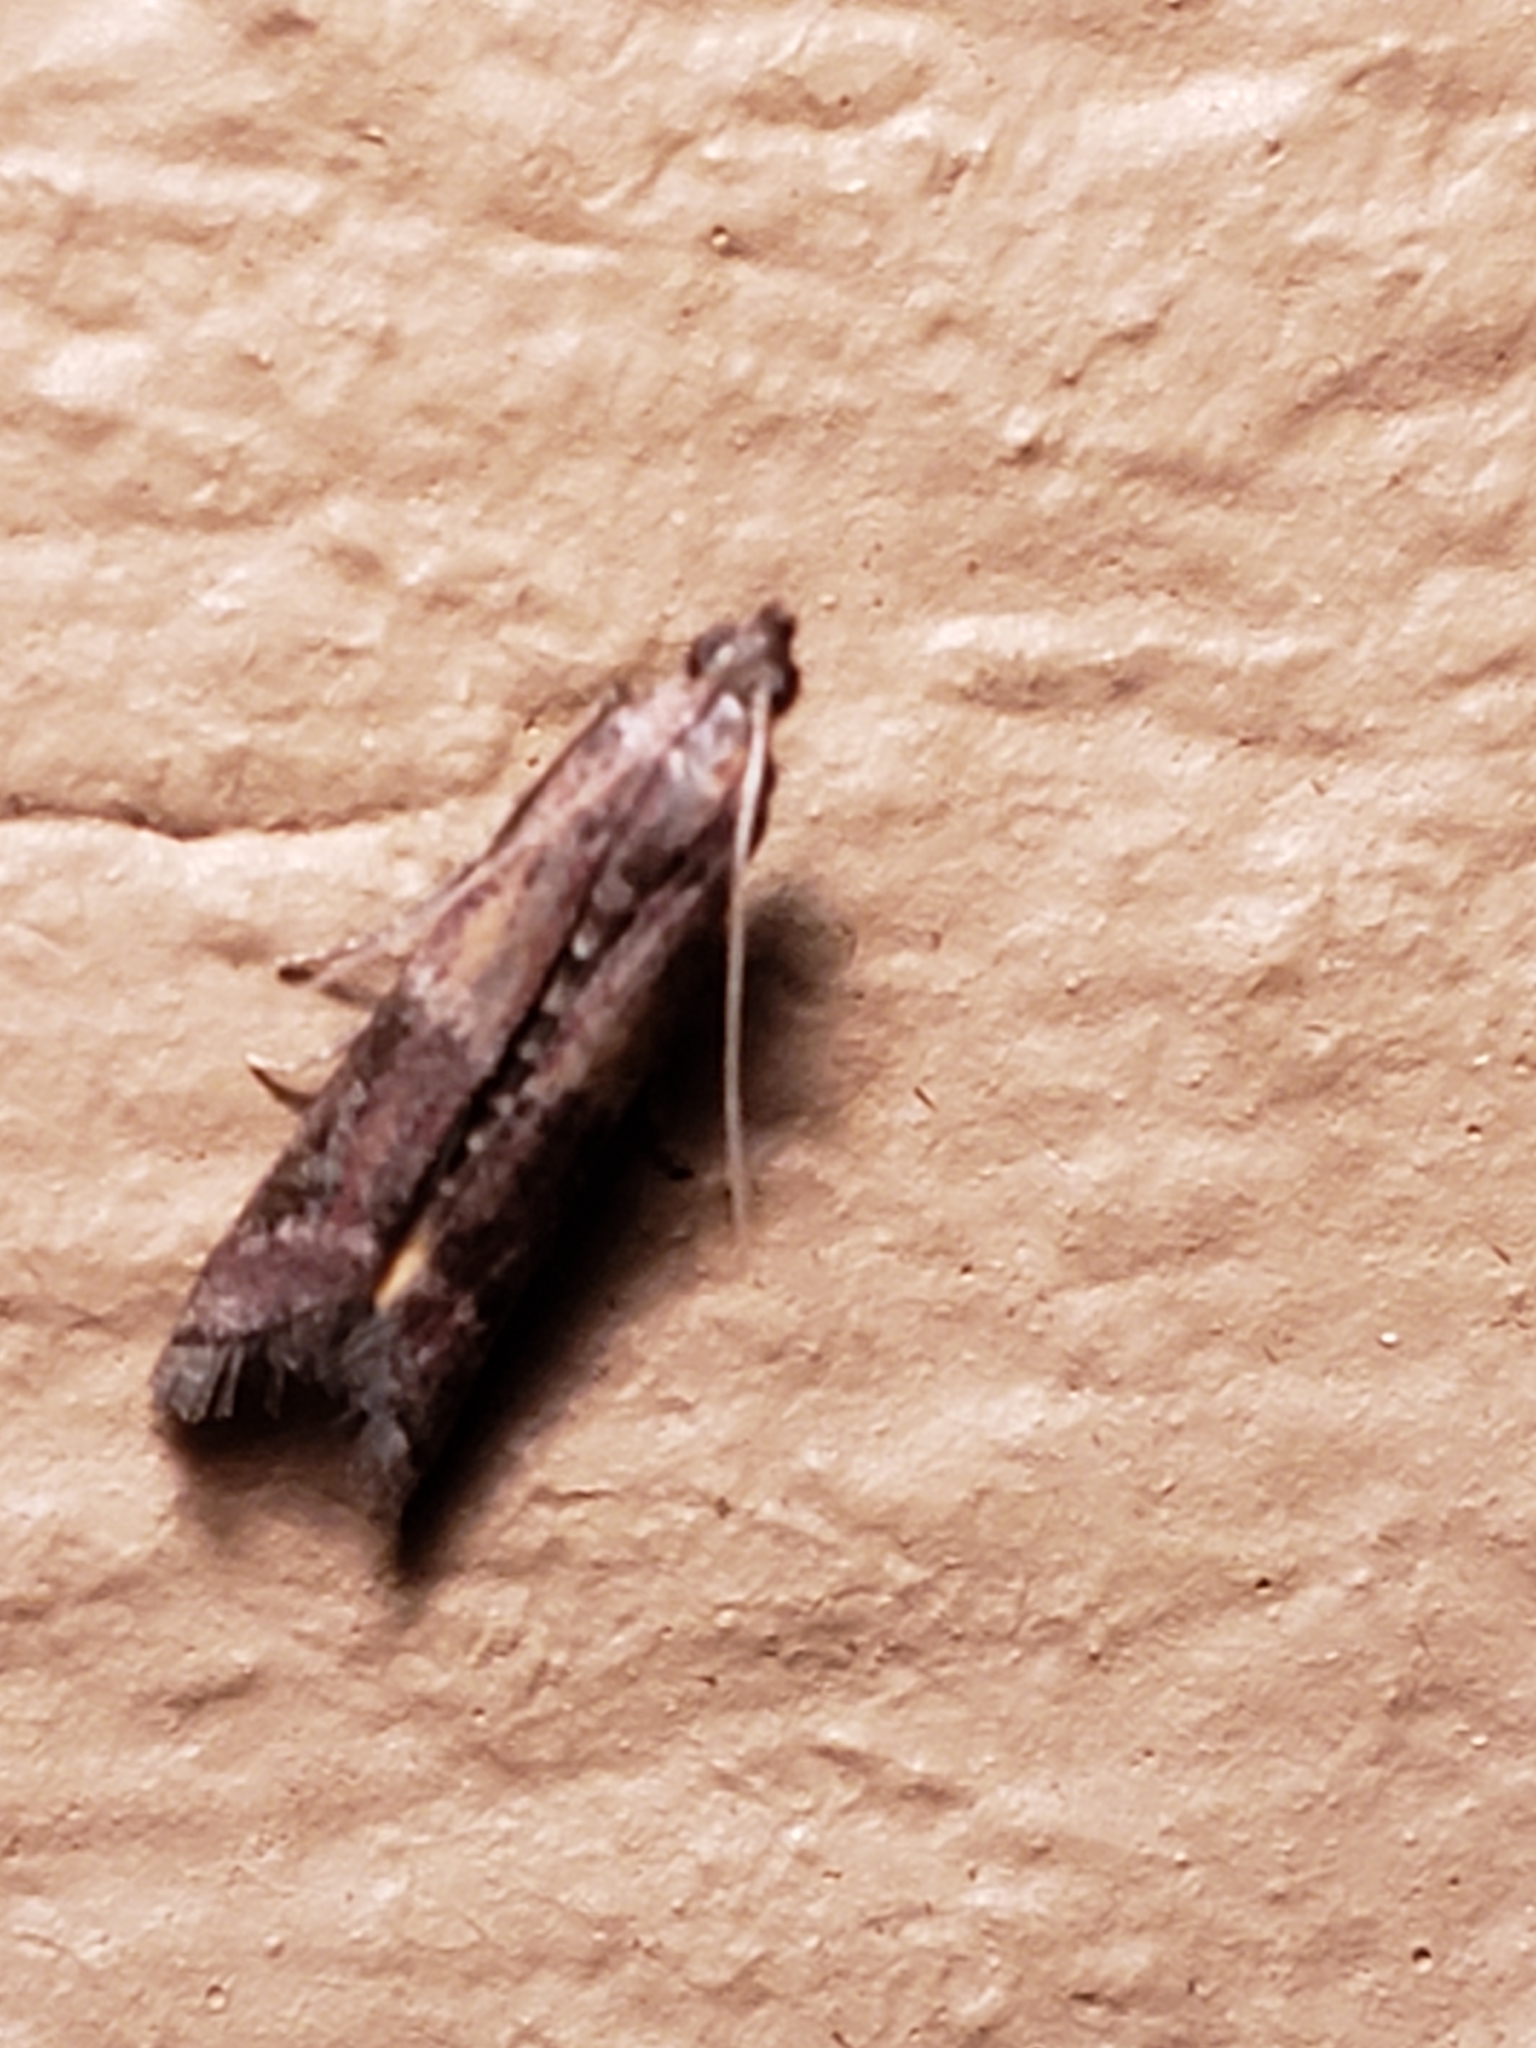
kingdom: Animalia
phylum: Arthropoda
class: Insecta
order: Lepidoptera
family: Pyralidae
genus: Ephestiodes
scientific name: Ephestiodes infimella
